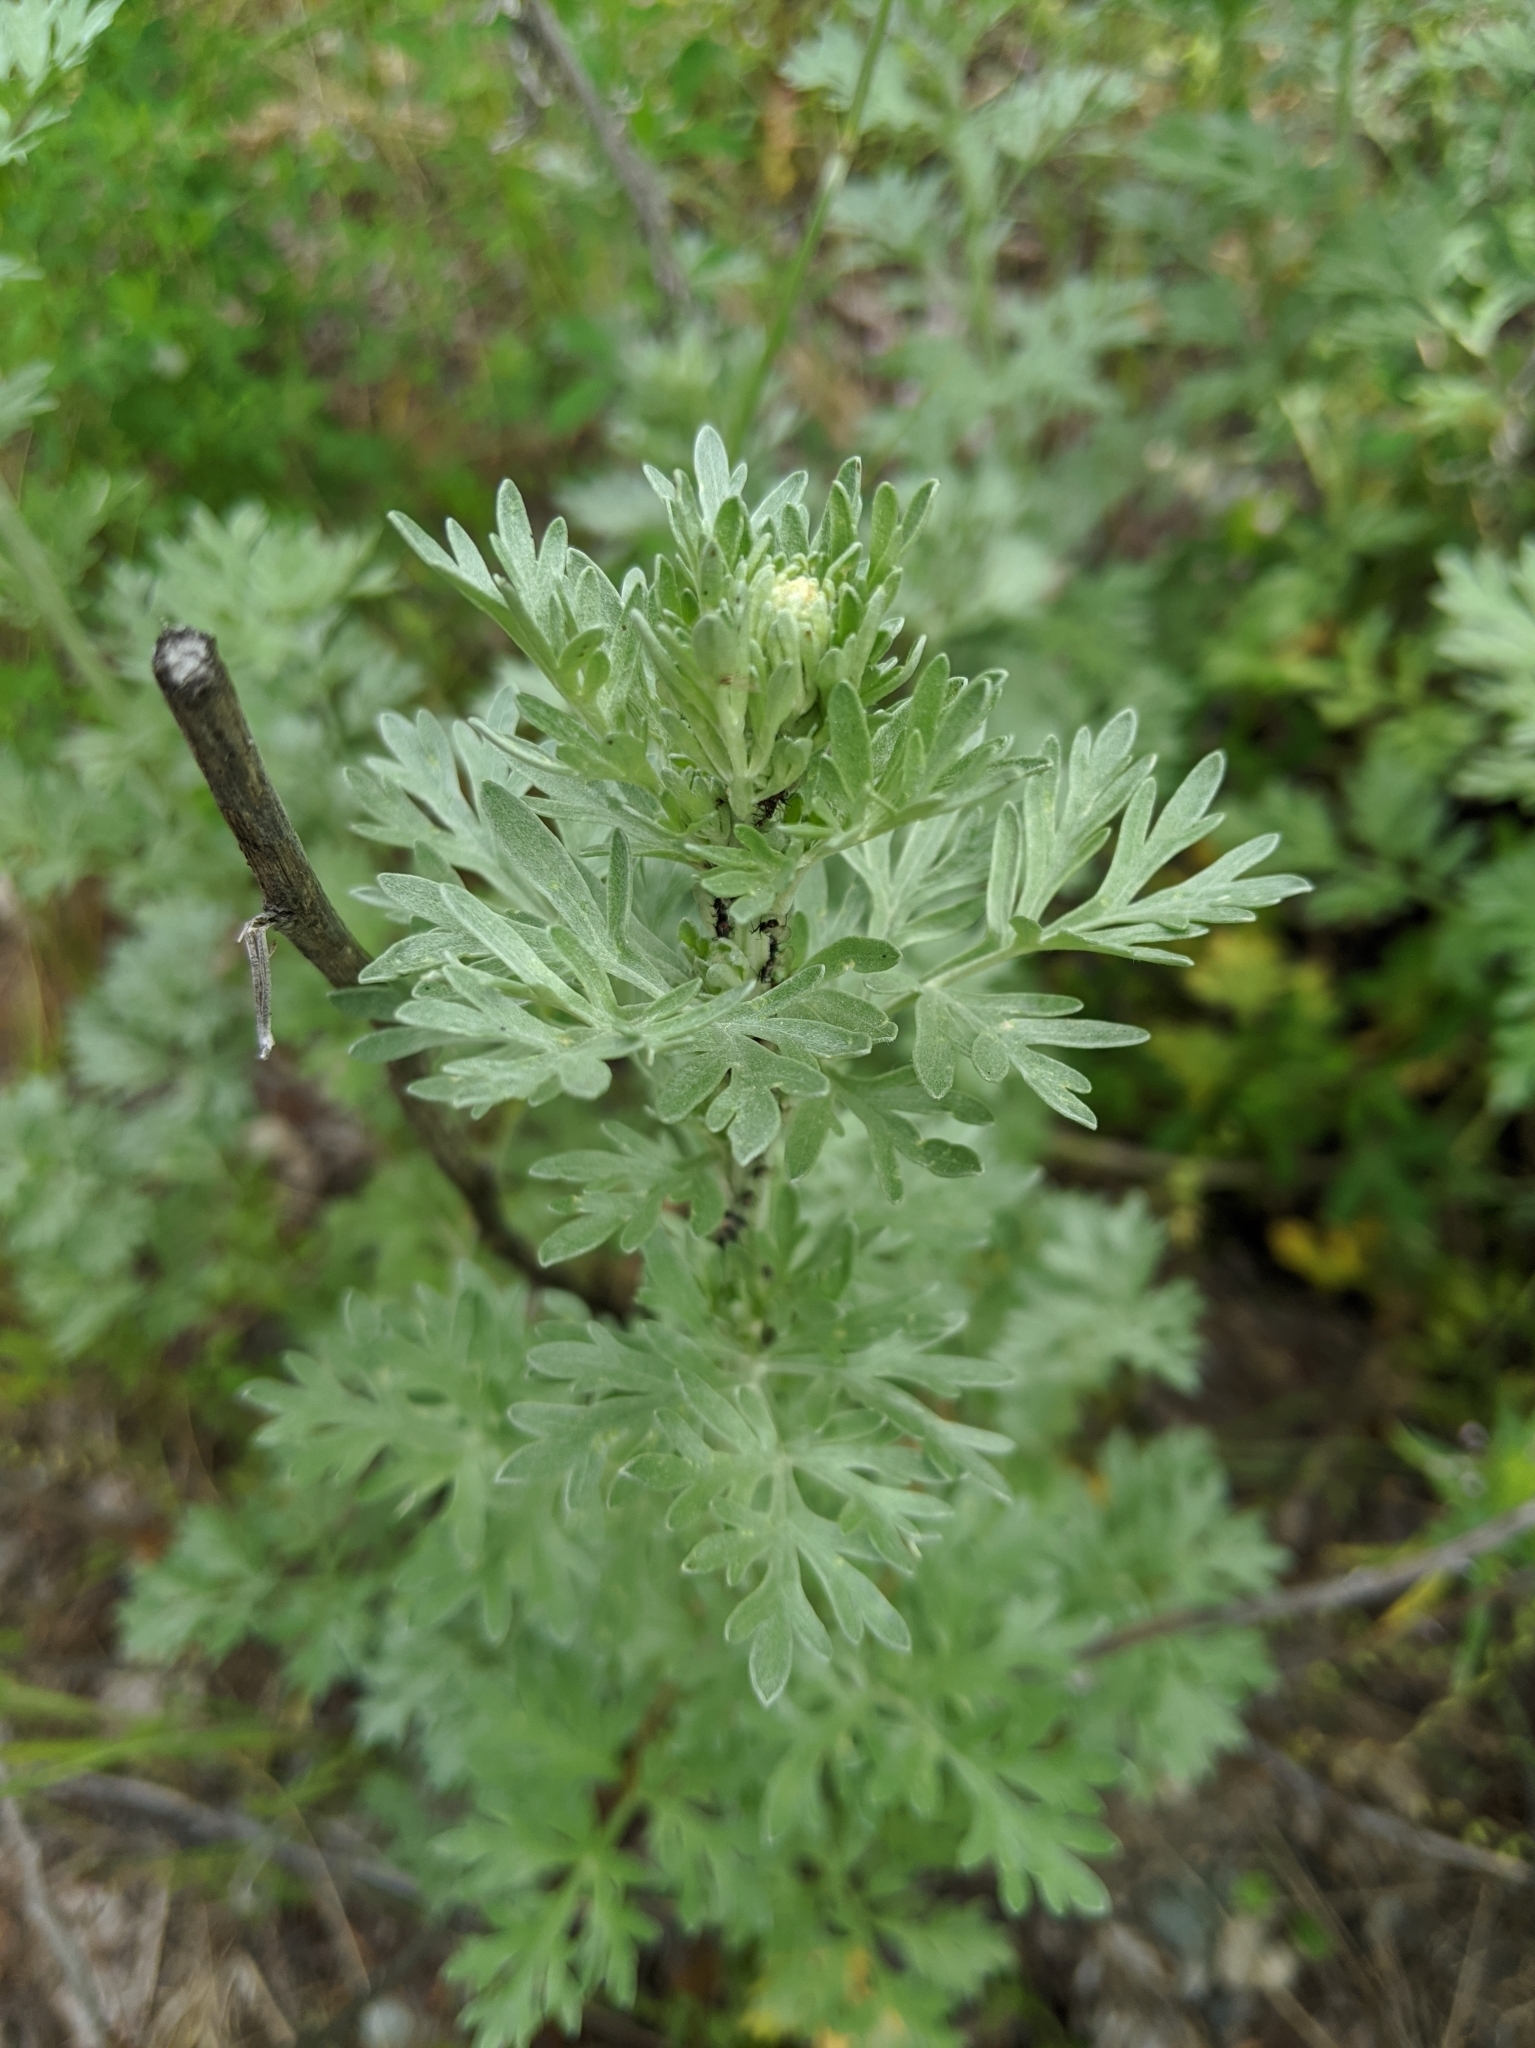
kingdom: Plantae
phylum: Tracheophyta
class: Magnoliopsida
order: Asterales
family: Asteraceae
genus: Artemisia
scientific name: Artemisia absinthium
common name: Wormwood
